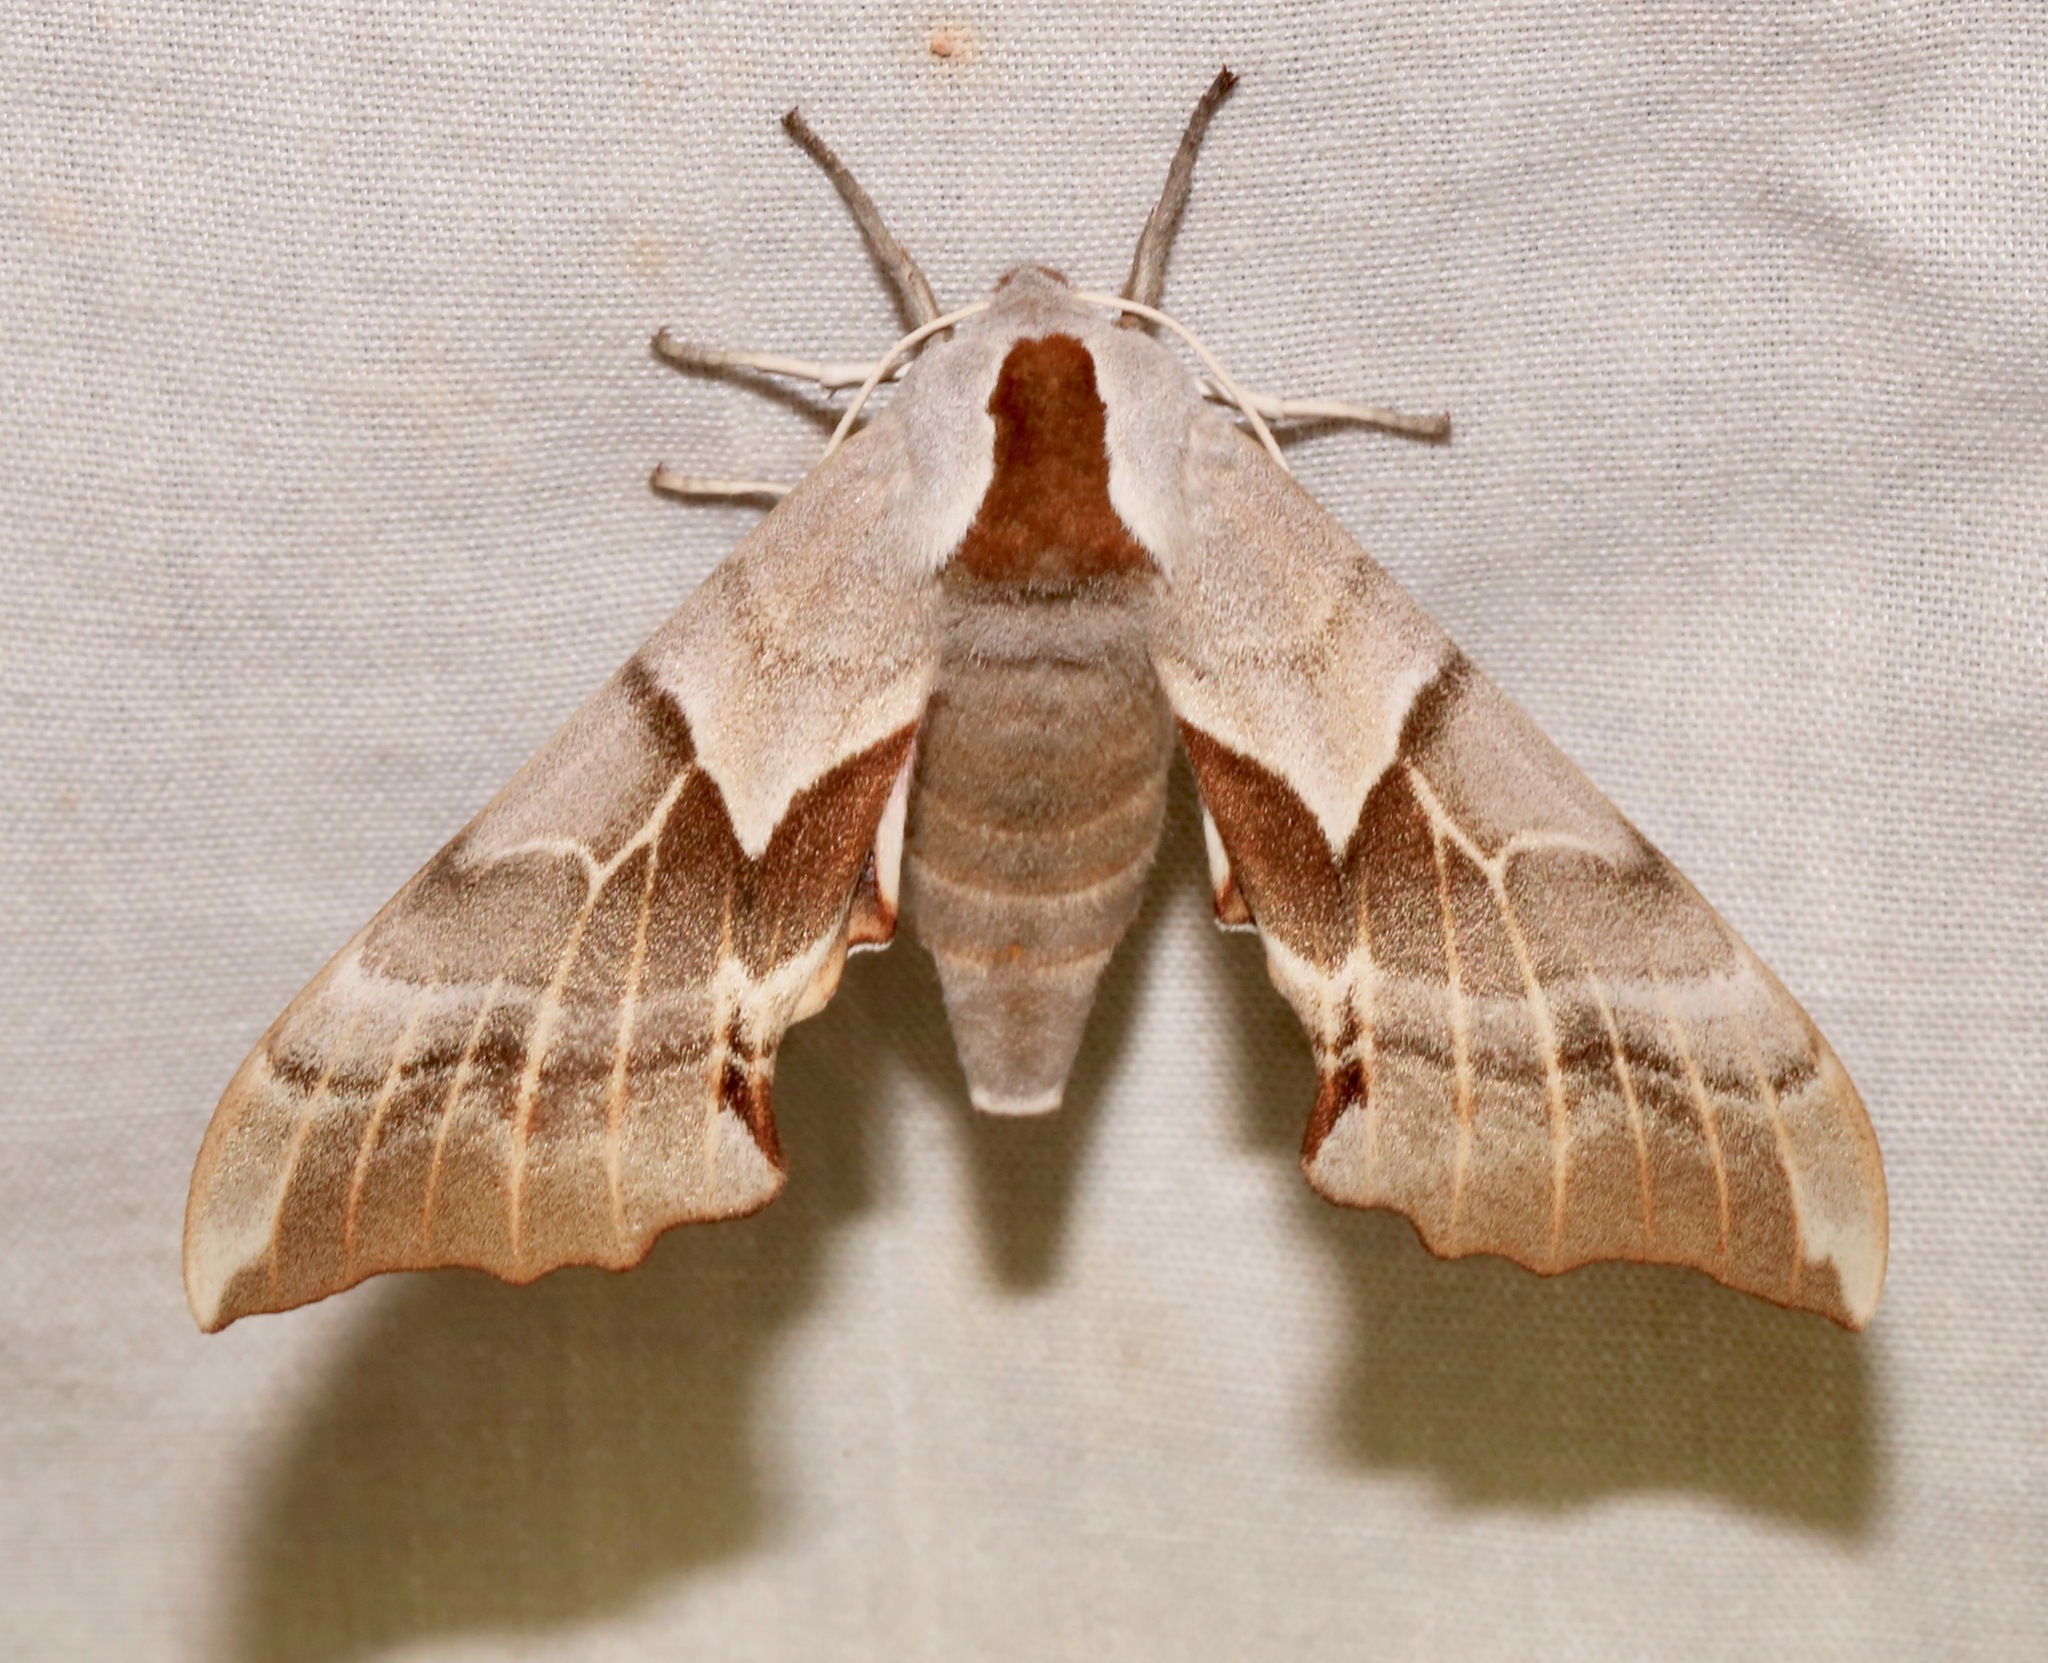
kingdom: Animalia
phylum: Arthropoda
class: Insecta
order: Lepidoptera
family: Sphingidae
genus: Smerinthus
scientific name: Smerinthus cerisyi
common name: Cerisy's sphinx moth
